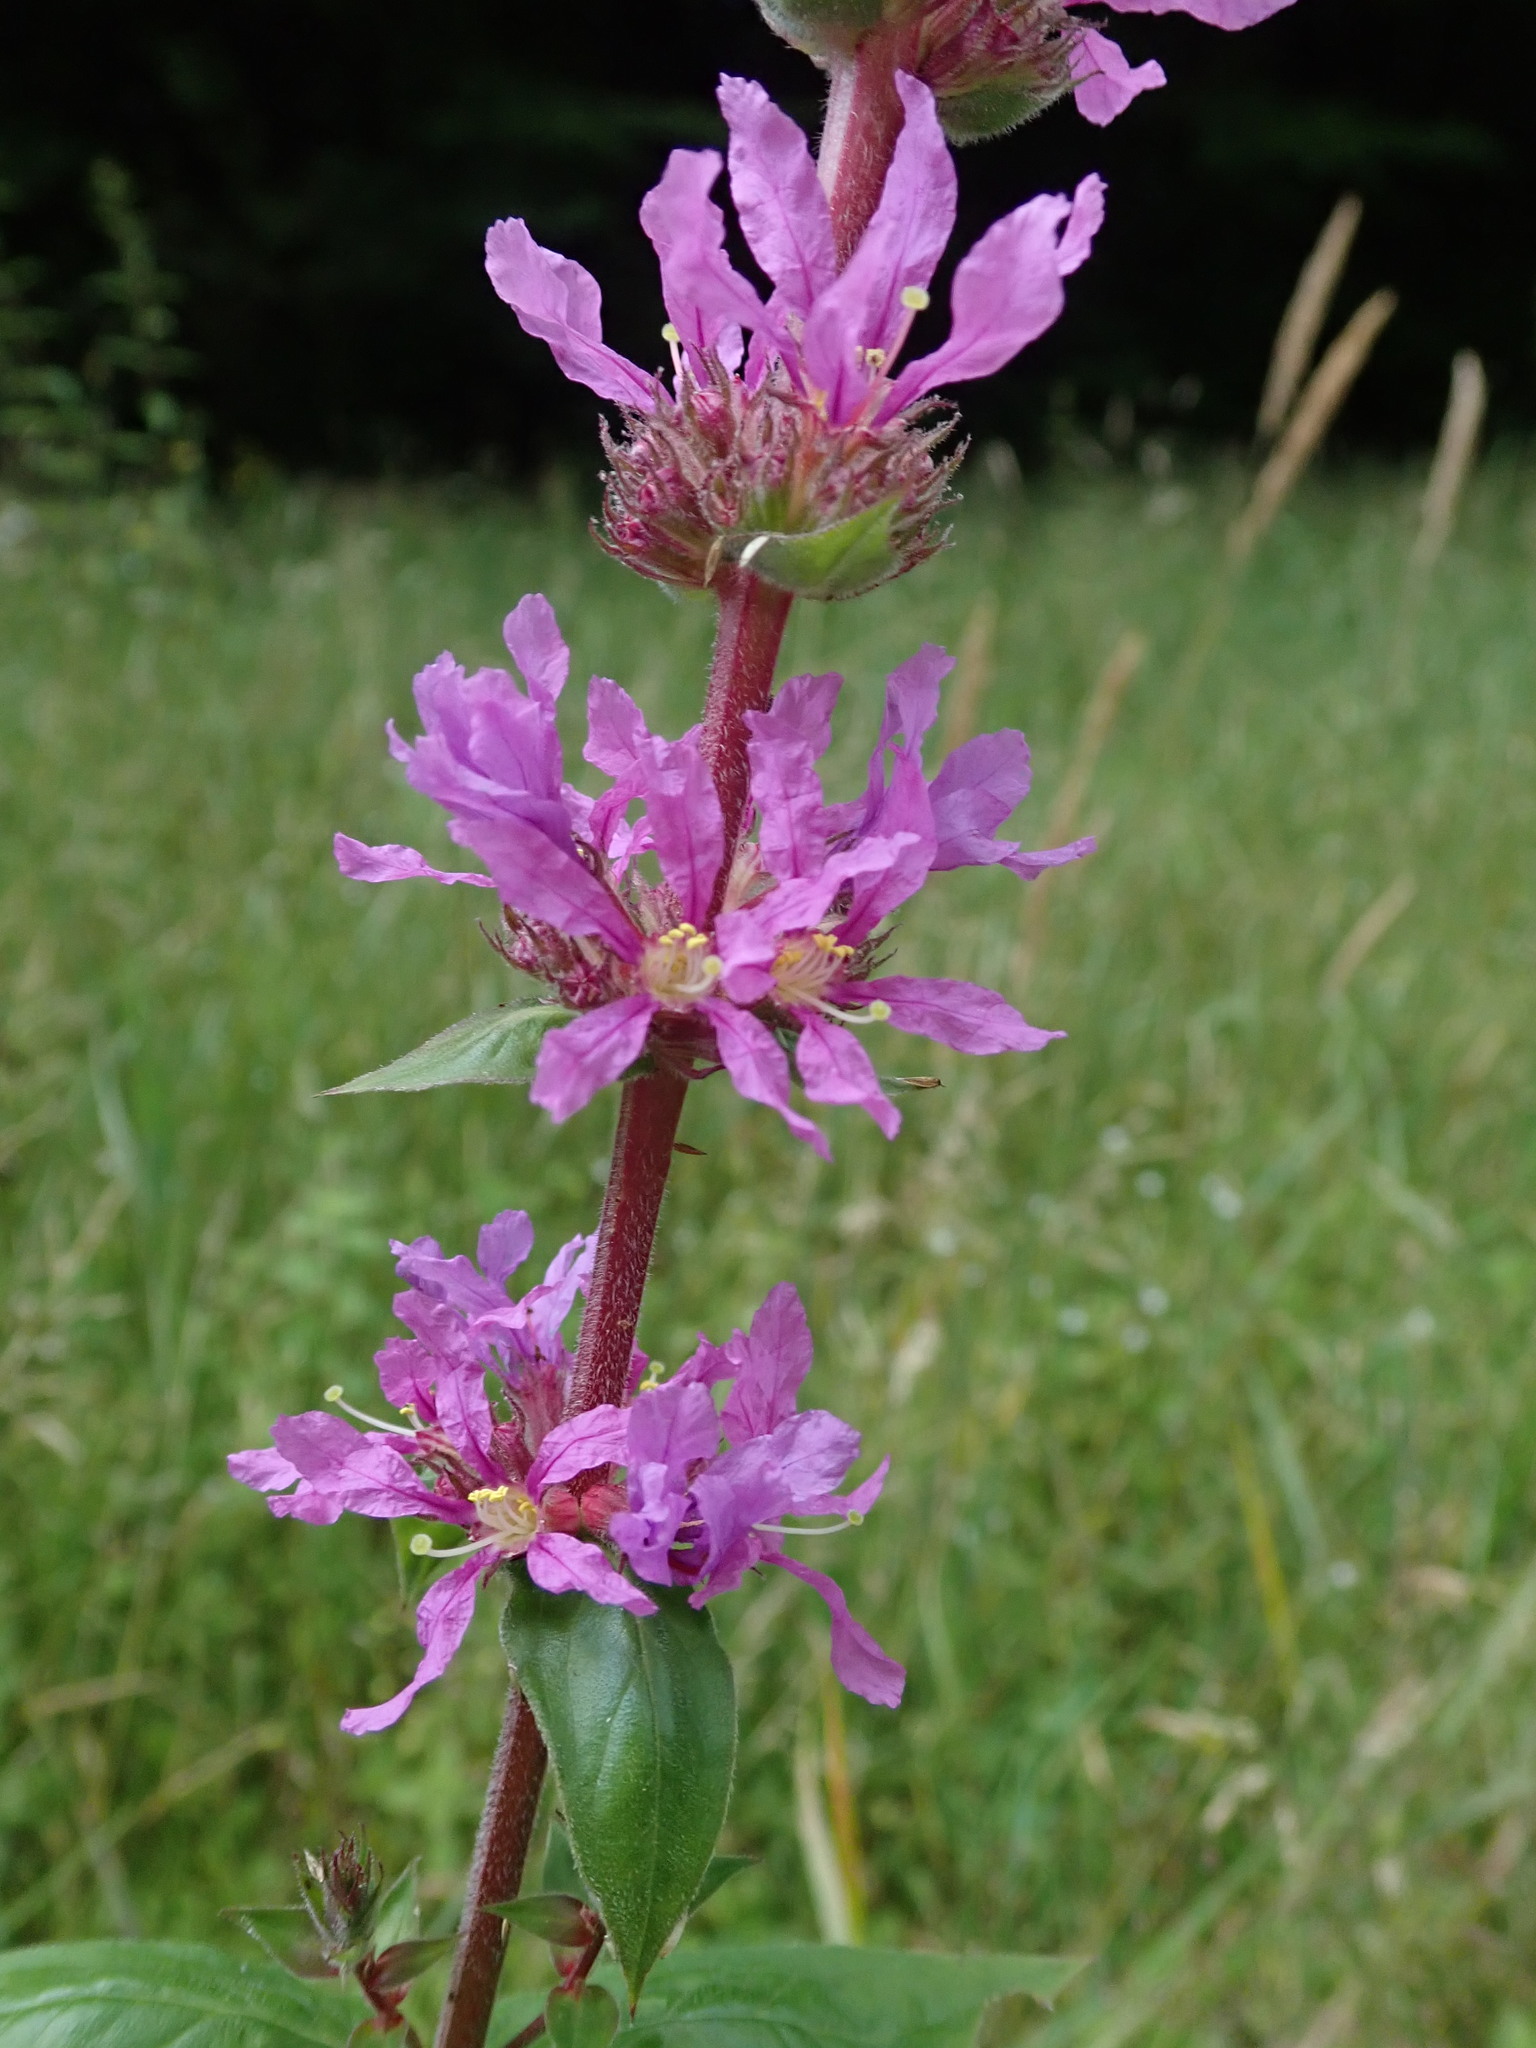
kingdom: Plantae
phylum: Tracheophyta
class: Magnoliopsida
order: Myrtales
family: Lythraceae
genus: Lythrum
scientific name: Lythrum salicaria
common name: Purple loosestrife
